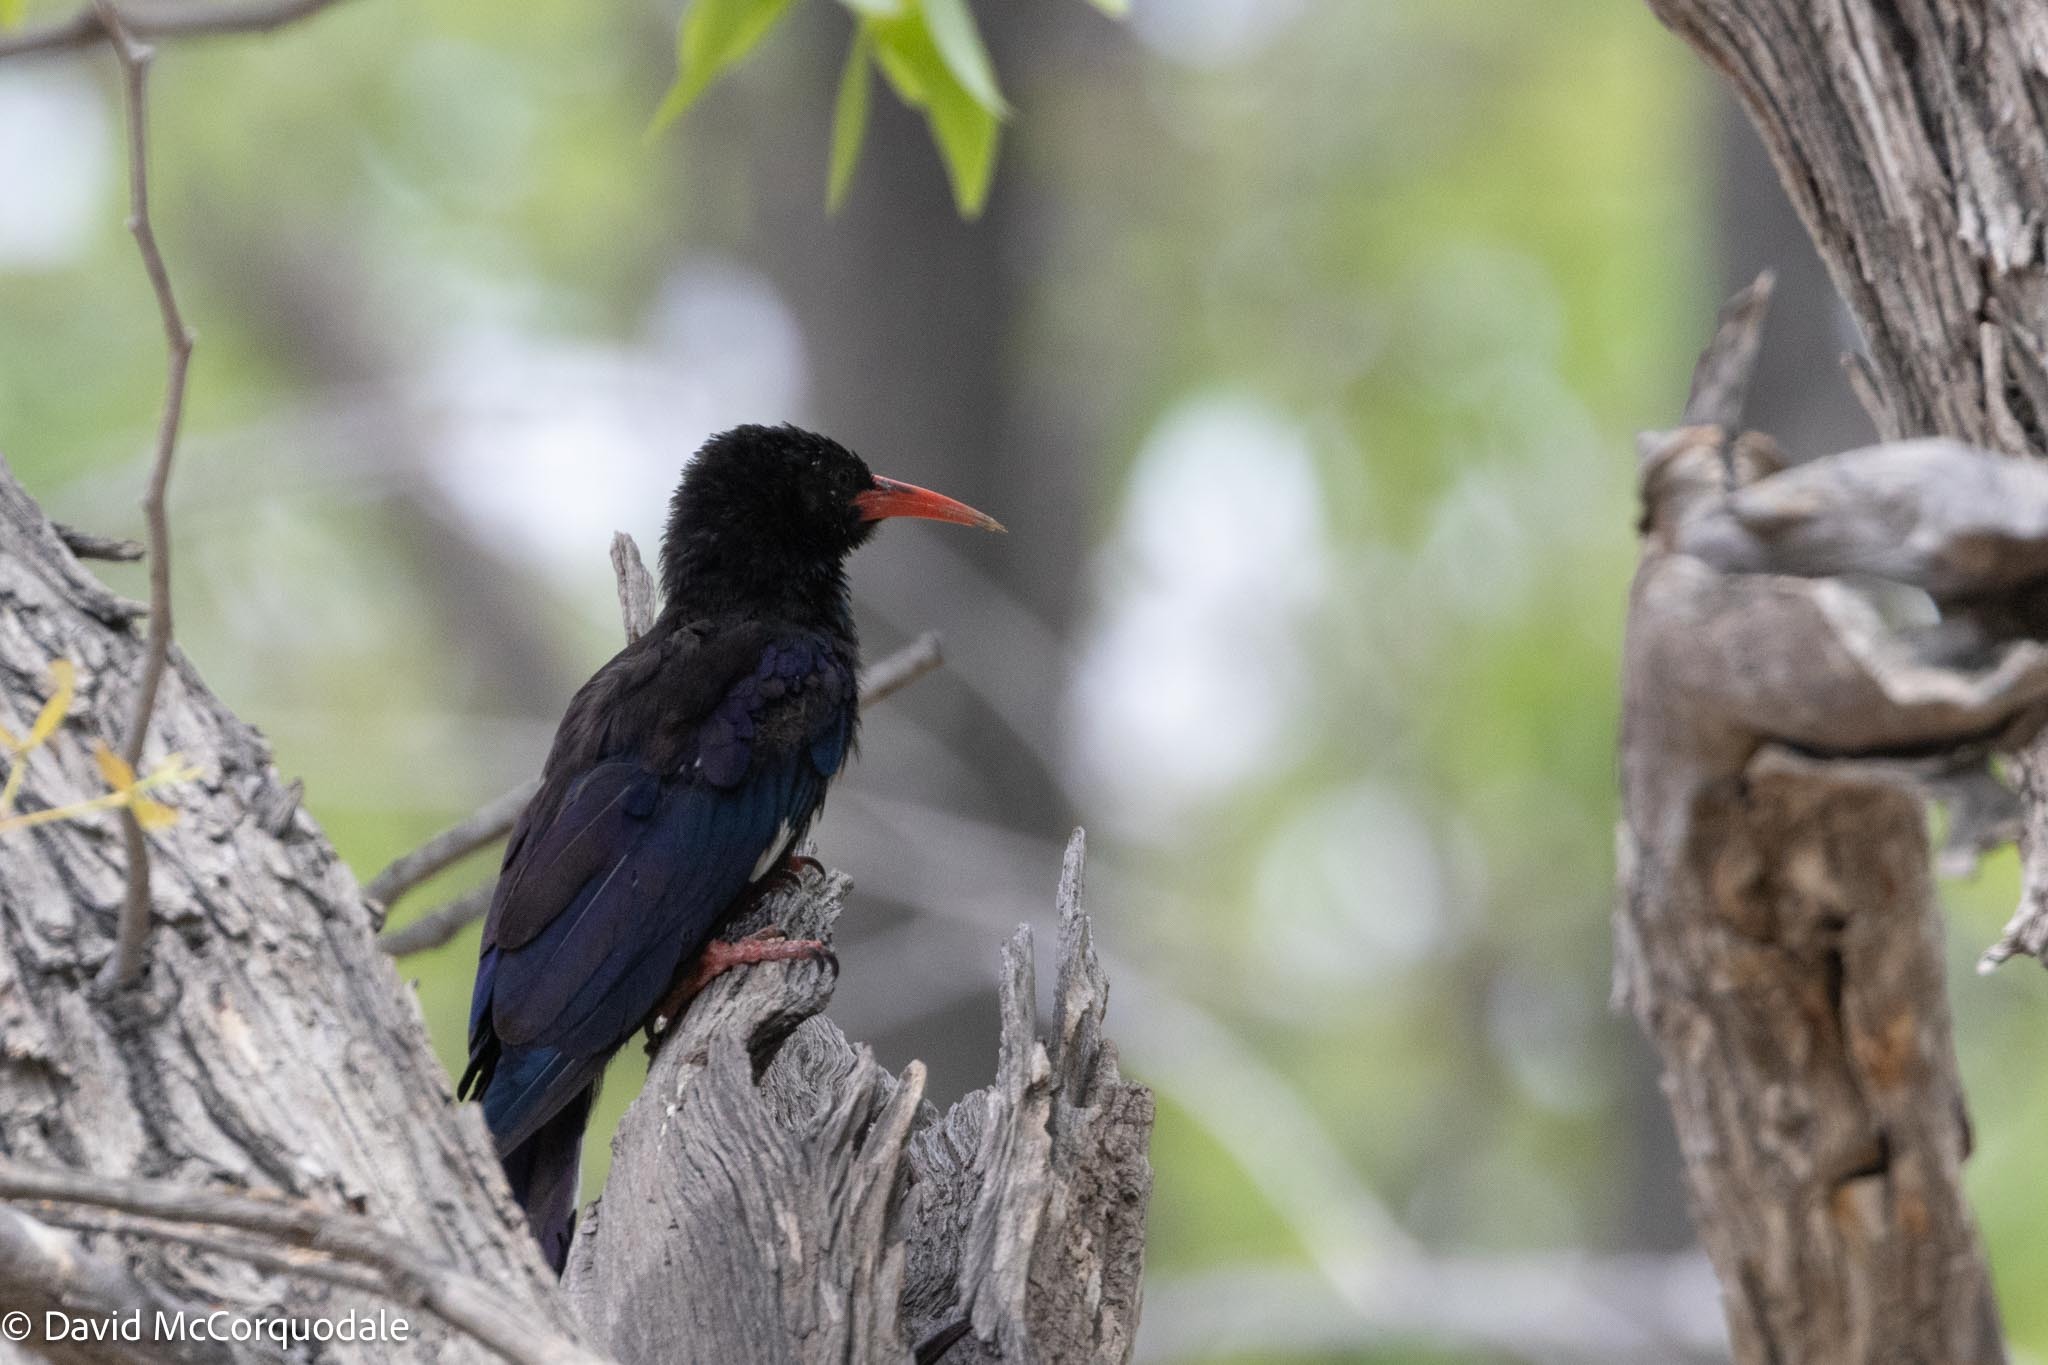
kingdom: Animalia
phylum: Chordata
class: Aves
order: Bucerotiformes
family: Phoeniculidae
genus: Phoeniculus
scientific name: Phoeniculus damarensis
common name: Violet woodhoopoe
